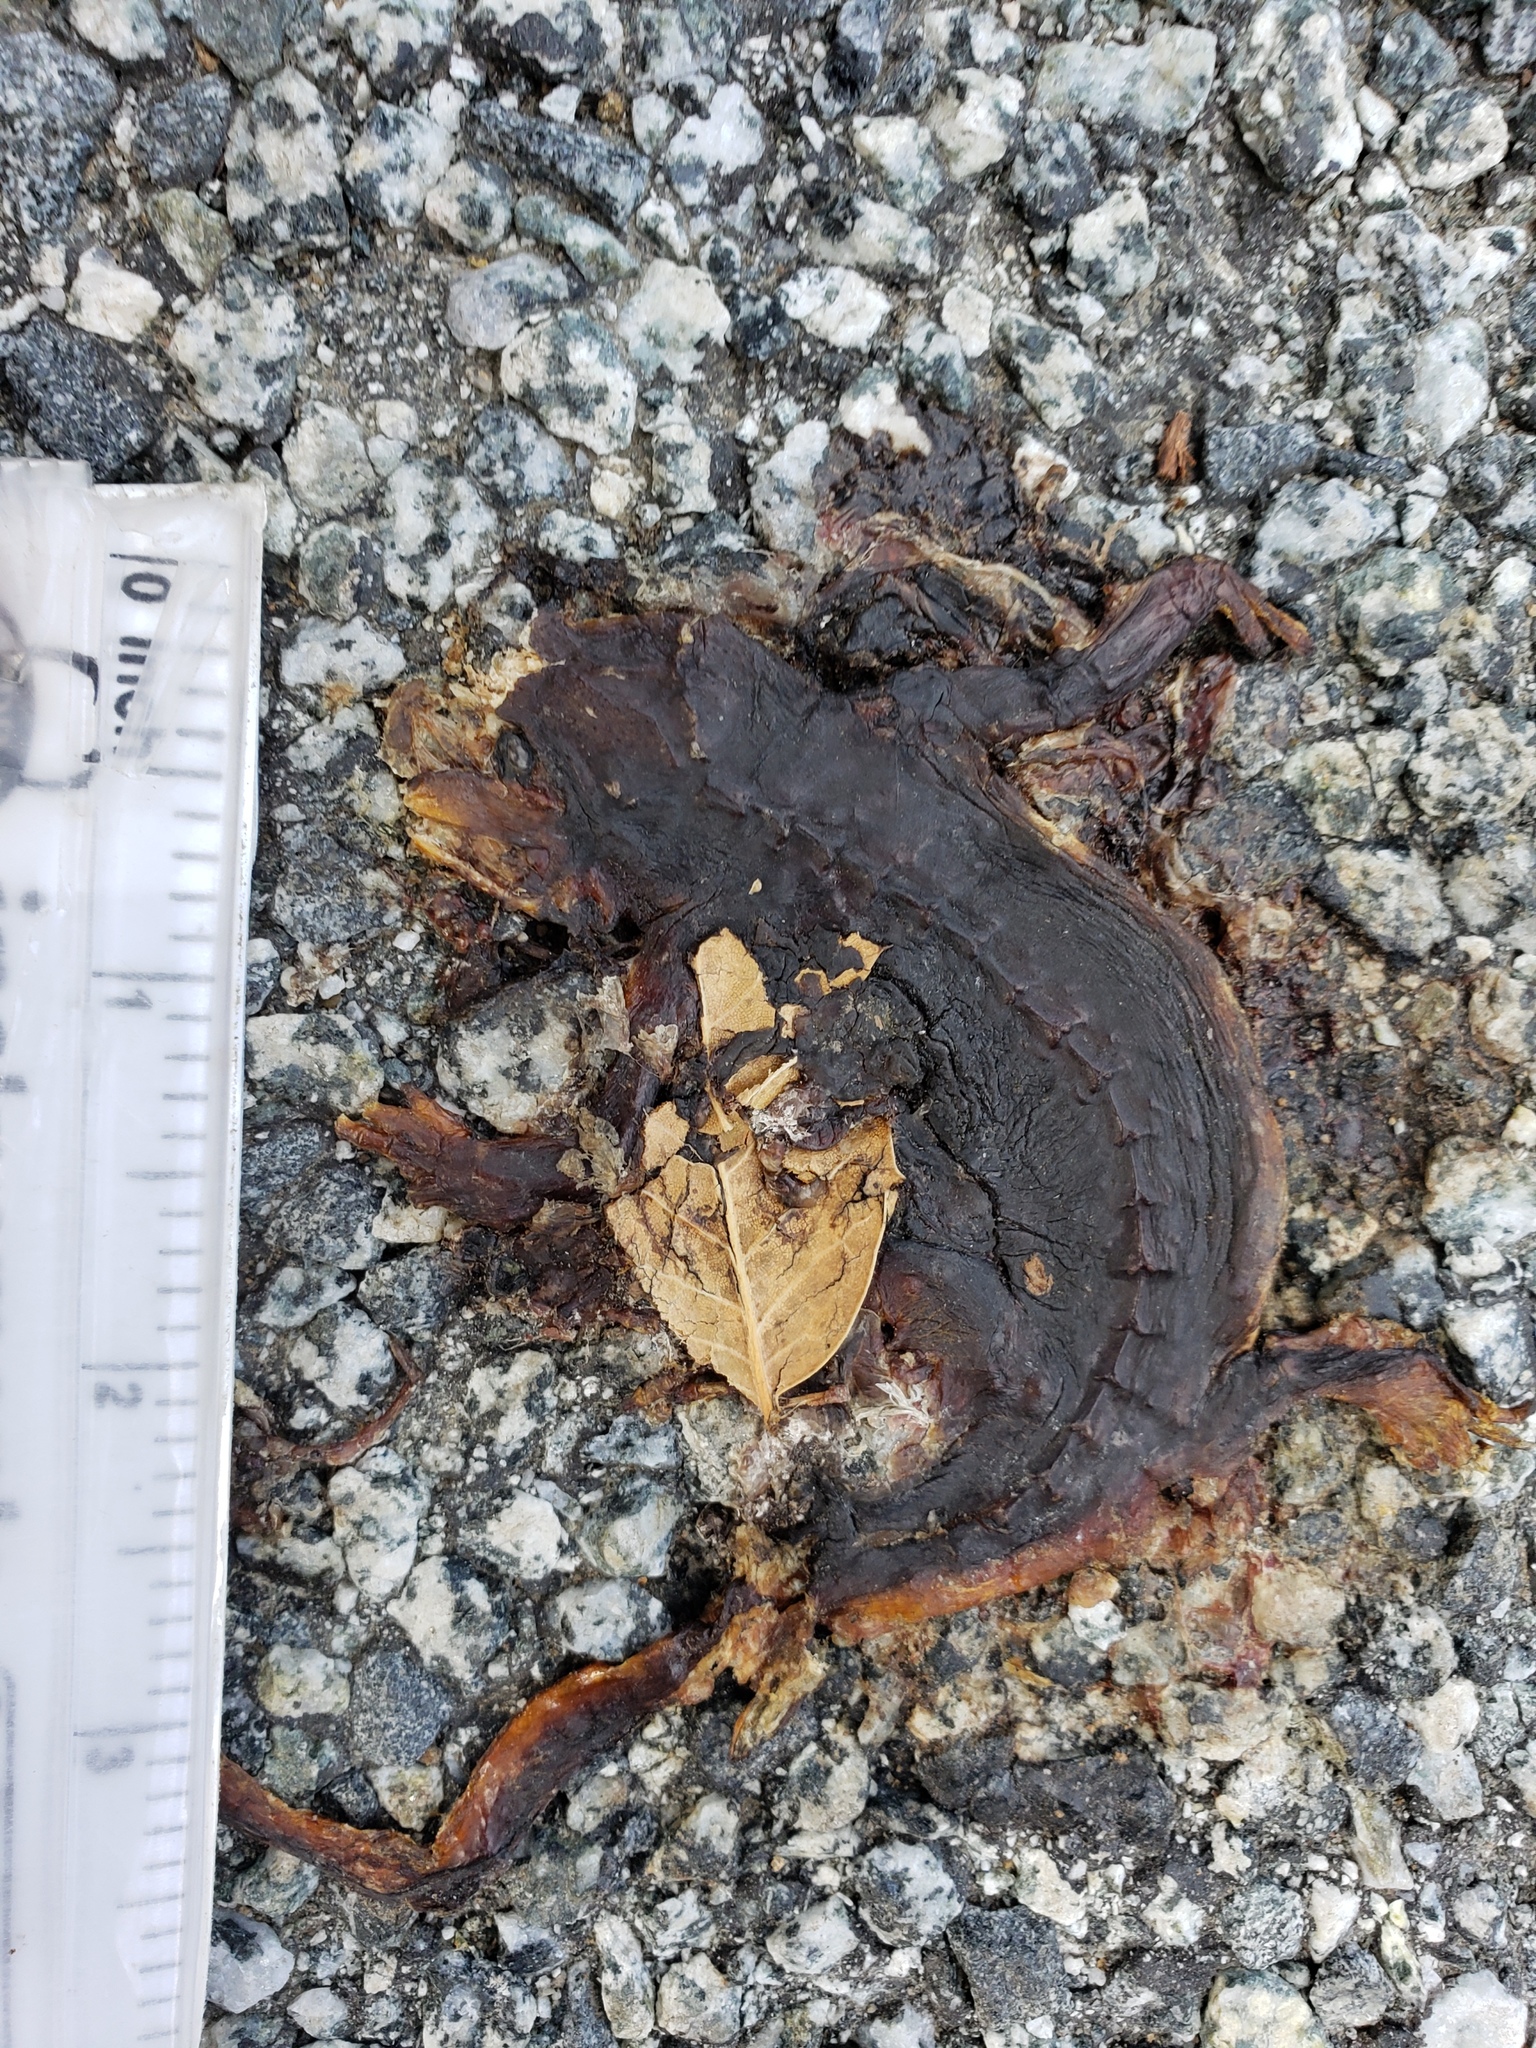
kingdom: Animalia
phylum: Chordata
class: Amphibia
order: Caudata
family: Salamandridae
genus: Taricha
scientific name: Taricha
